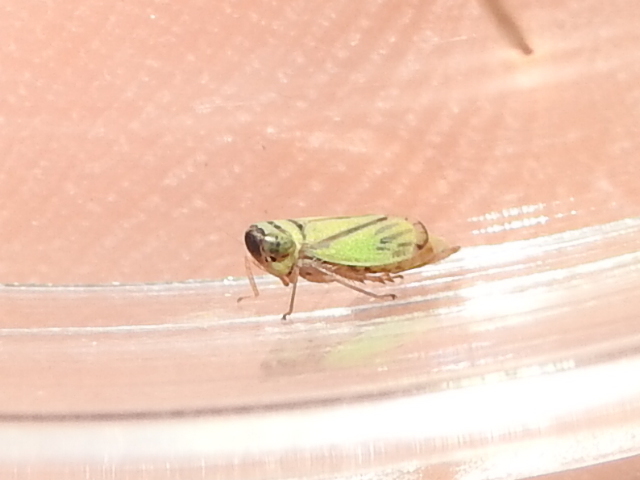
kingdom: Animalia
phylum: Arthropoda
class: Insecta
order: Hemiptera
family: Cicadellidae
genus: Stirellus
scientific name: Stirellus bicolor
